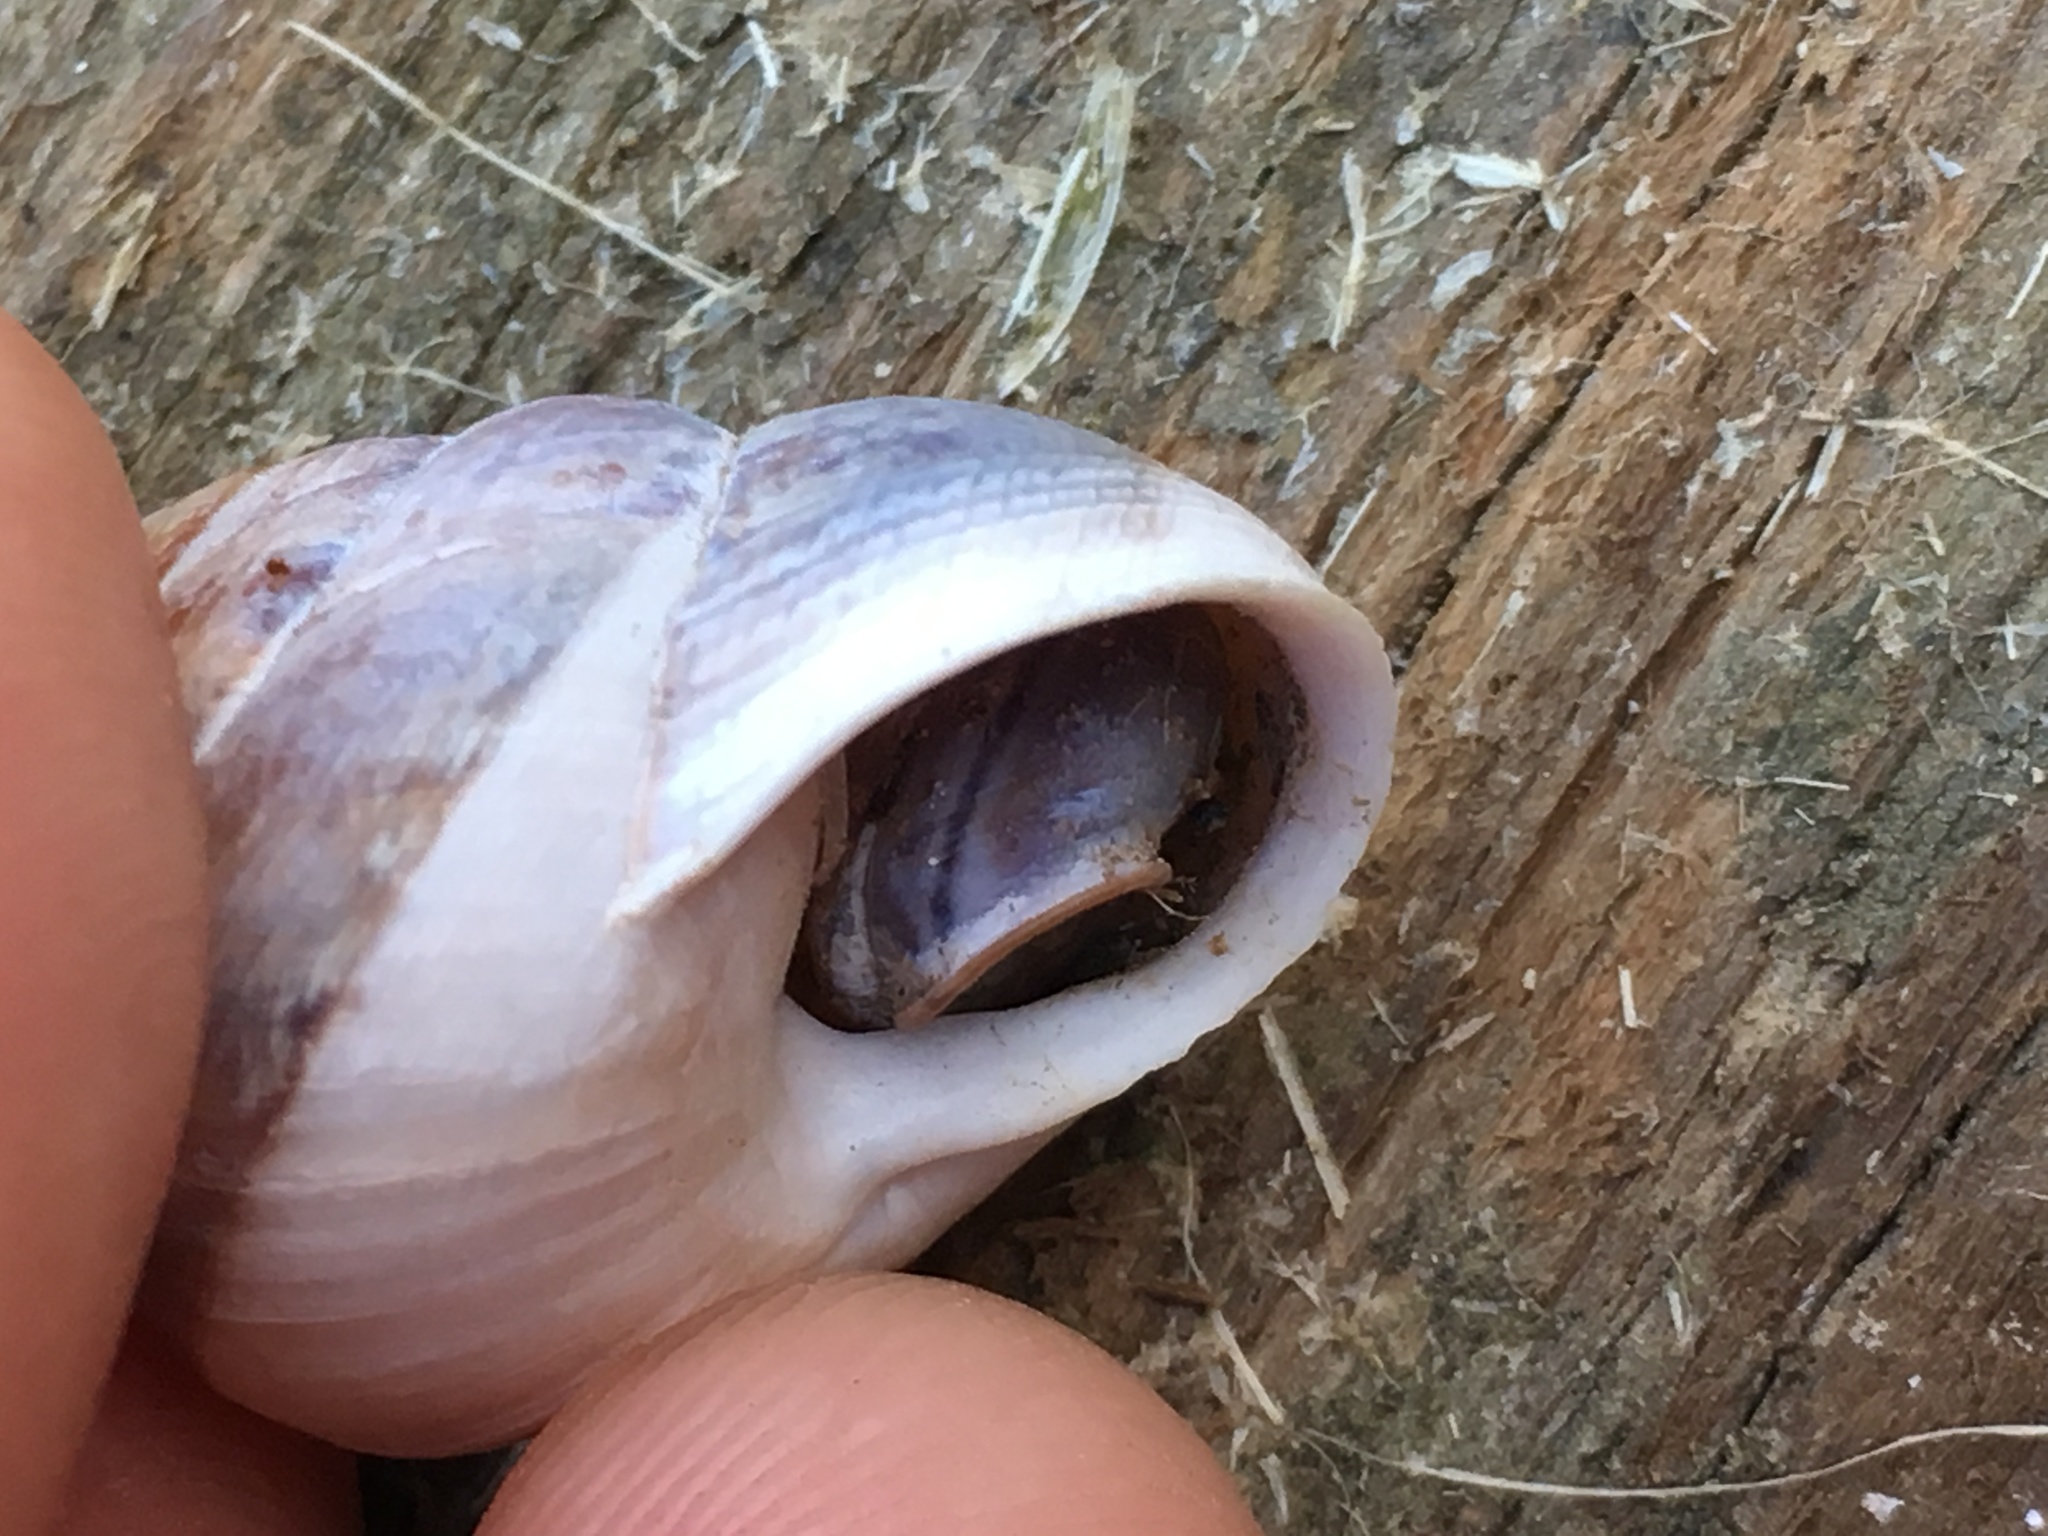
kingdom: Animalia
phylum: Mollusca
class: Gastropoda
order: Stylommatophora
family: Xanthonychidae
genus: Micrarionta
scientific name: Micrarionta facta
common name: Concentrated snail
